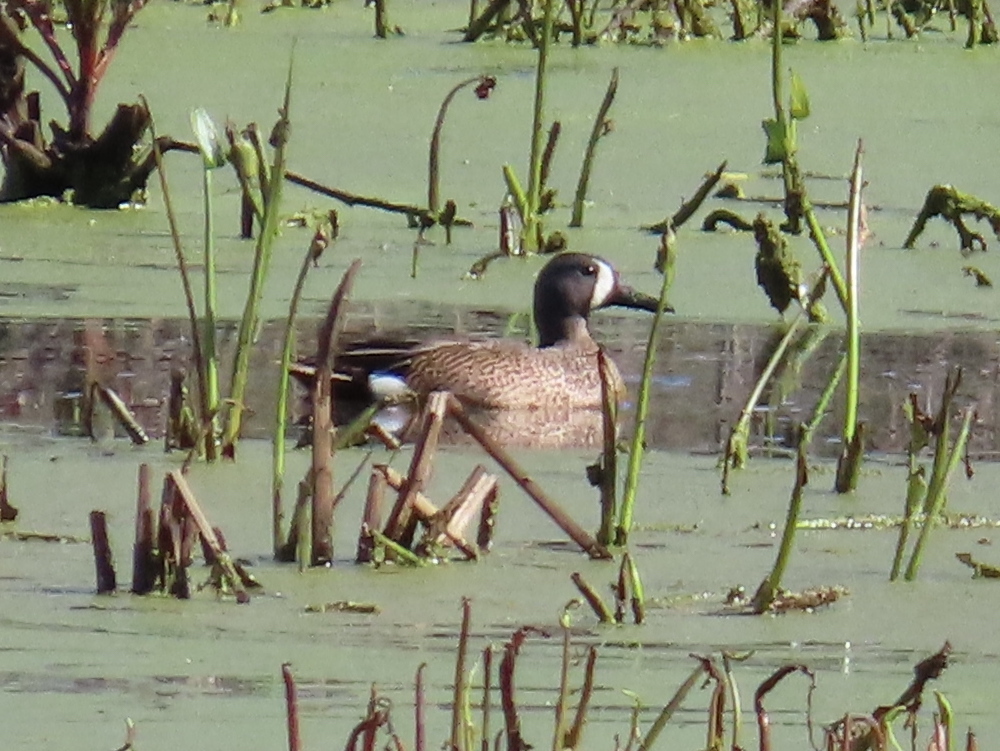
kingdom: Animalia
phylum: Chordata
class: Aves
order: Anseriformes
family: Anatidae
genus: Spatula
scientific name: Spatula discors
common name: Blue-winged teal
